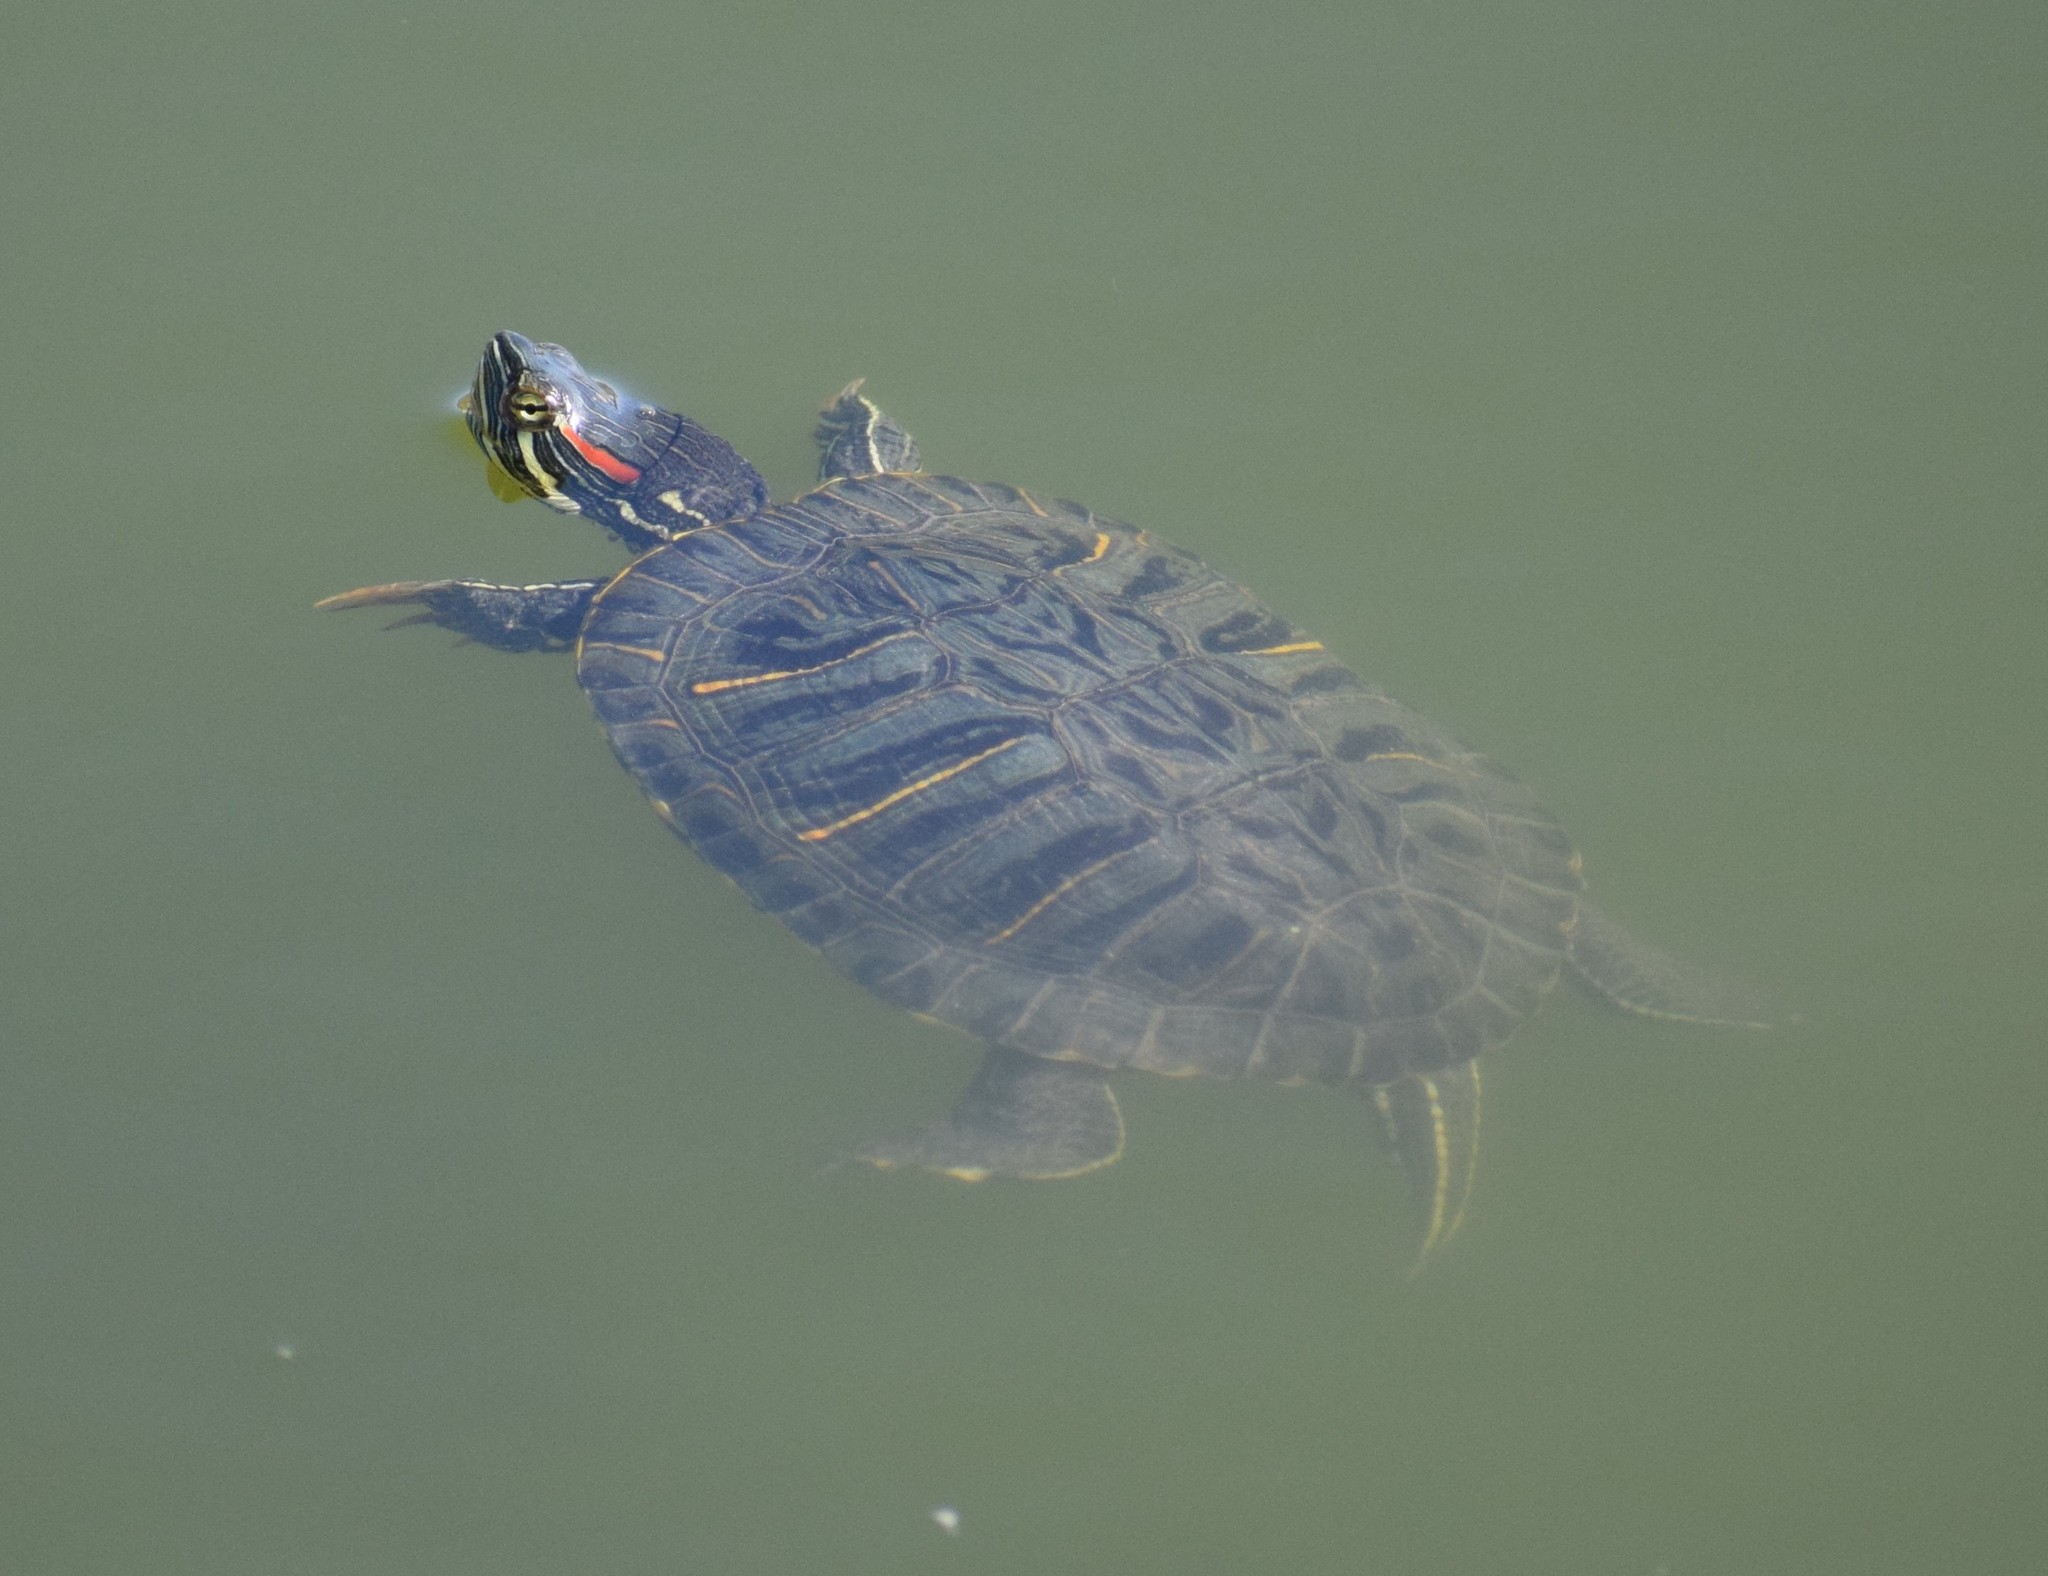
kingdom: Animalia
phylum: Chordata
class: Testudines
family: Emydidae
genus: Trachemys
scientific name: Trachemys scripta
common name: Slider
